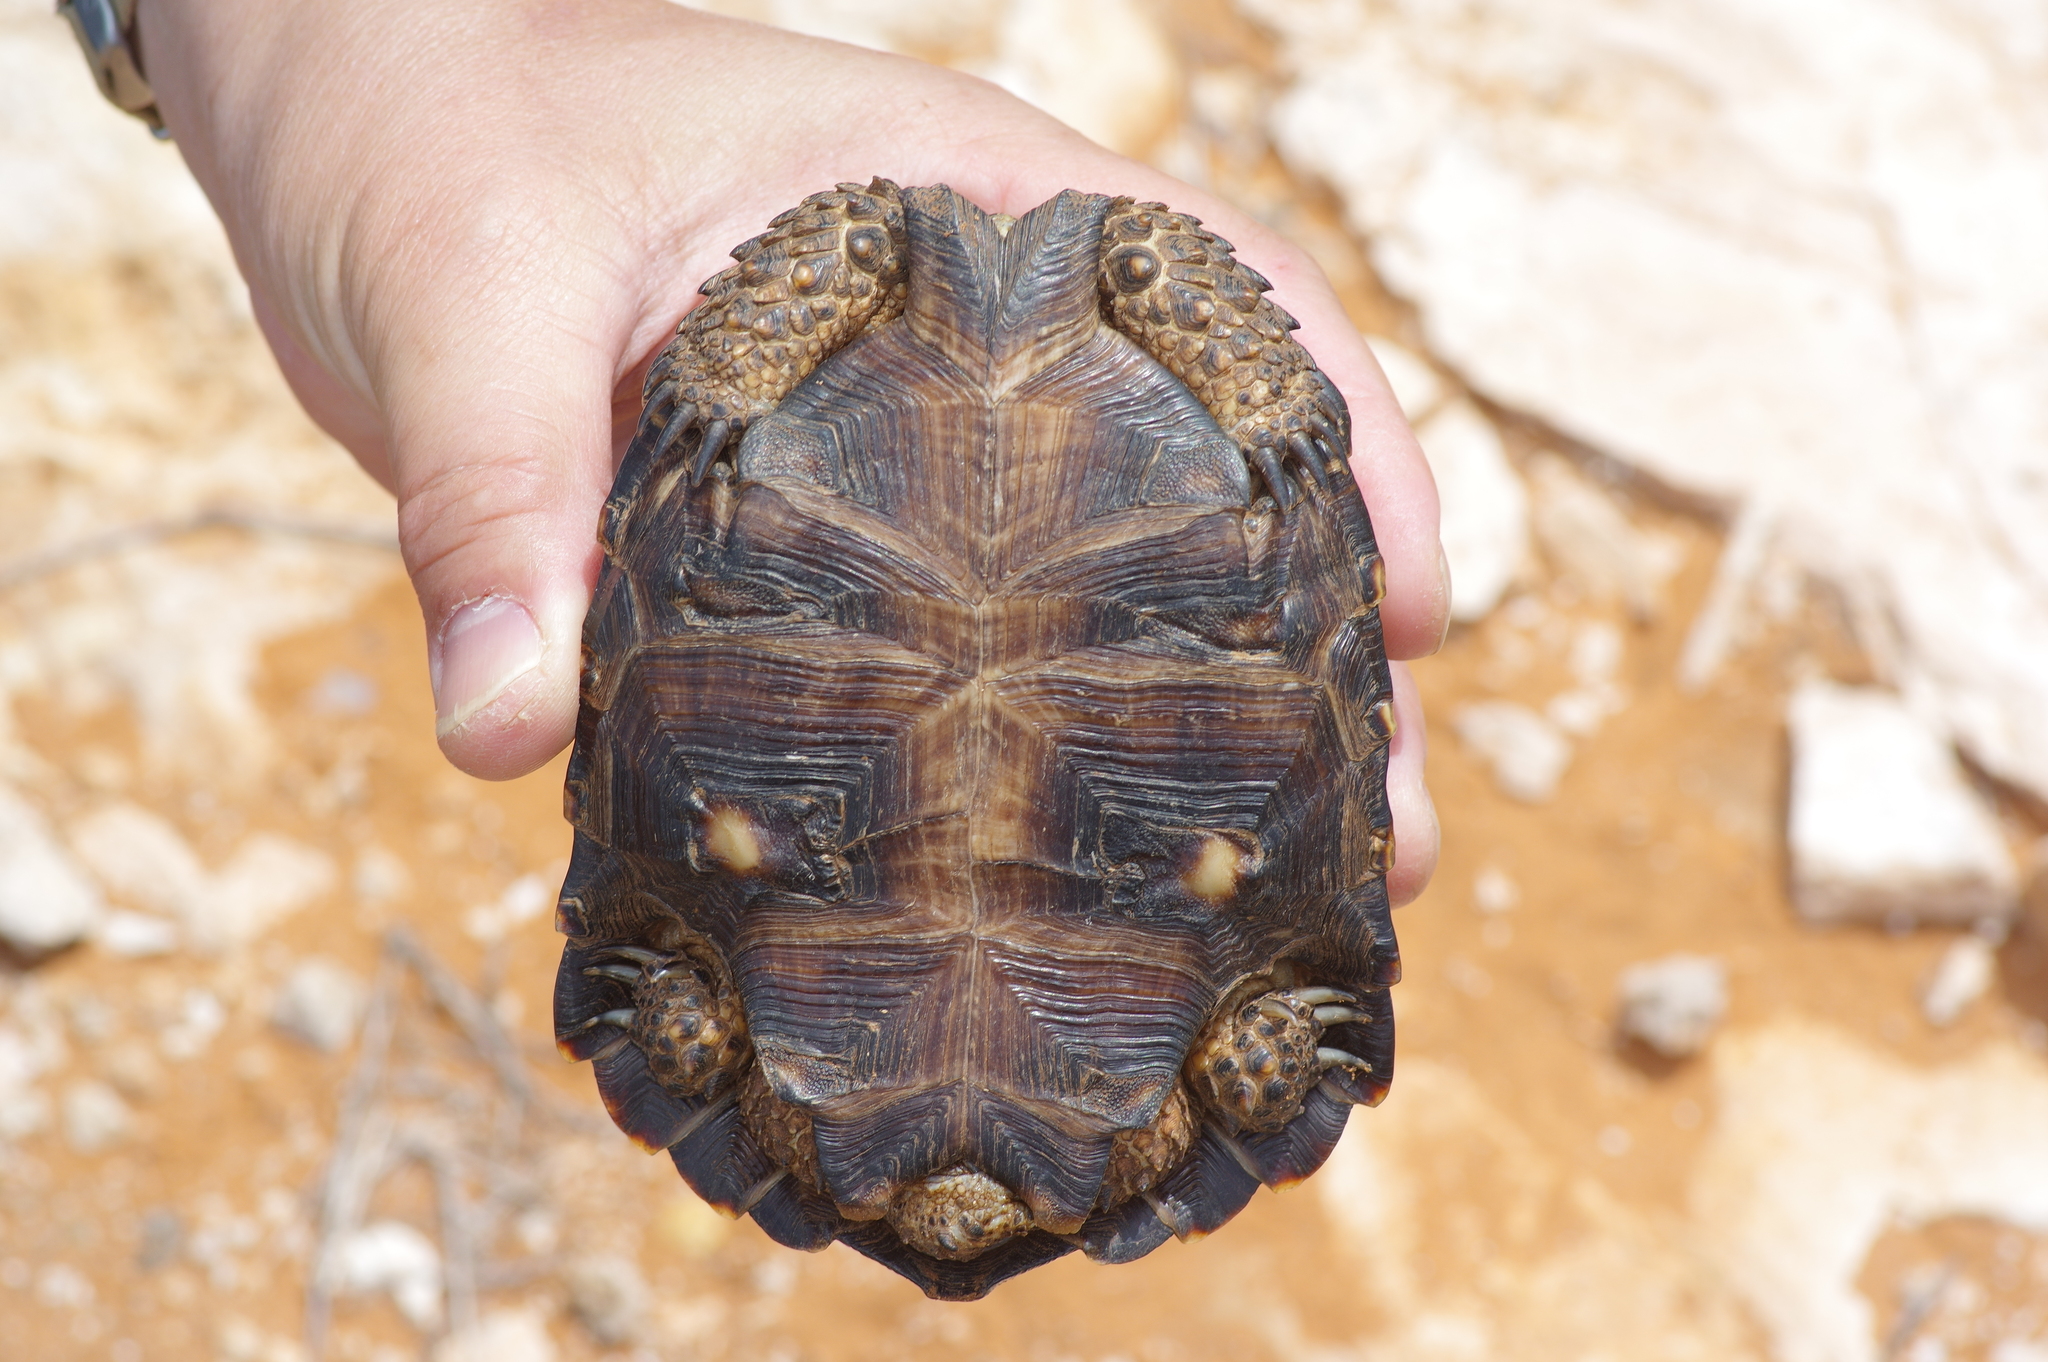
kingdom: Animalia
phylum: Chordata
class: Testudines
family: Testudinidae
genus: Gopherus
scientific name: Gopherus berlandieri
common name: Texas (gopher )tortoise
